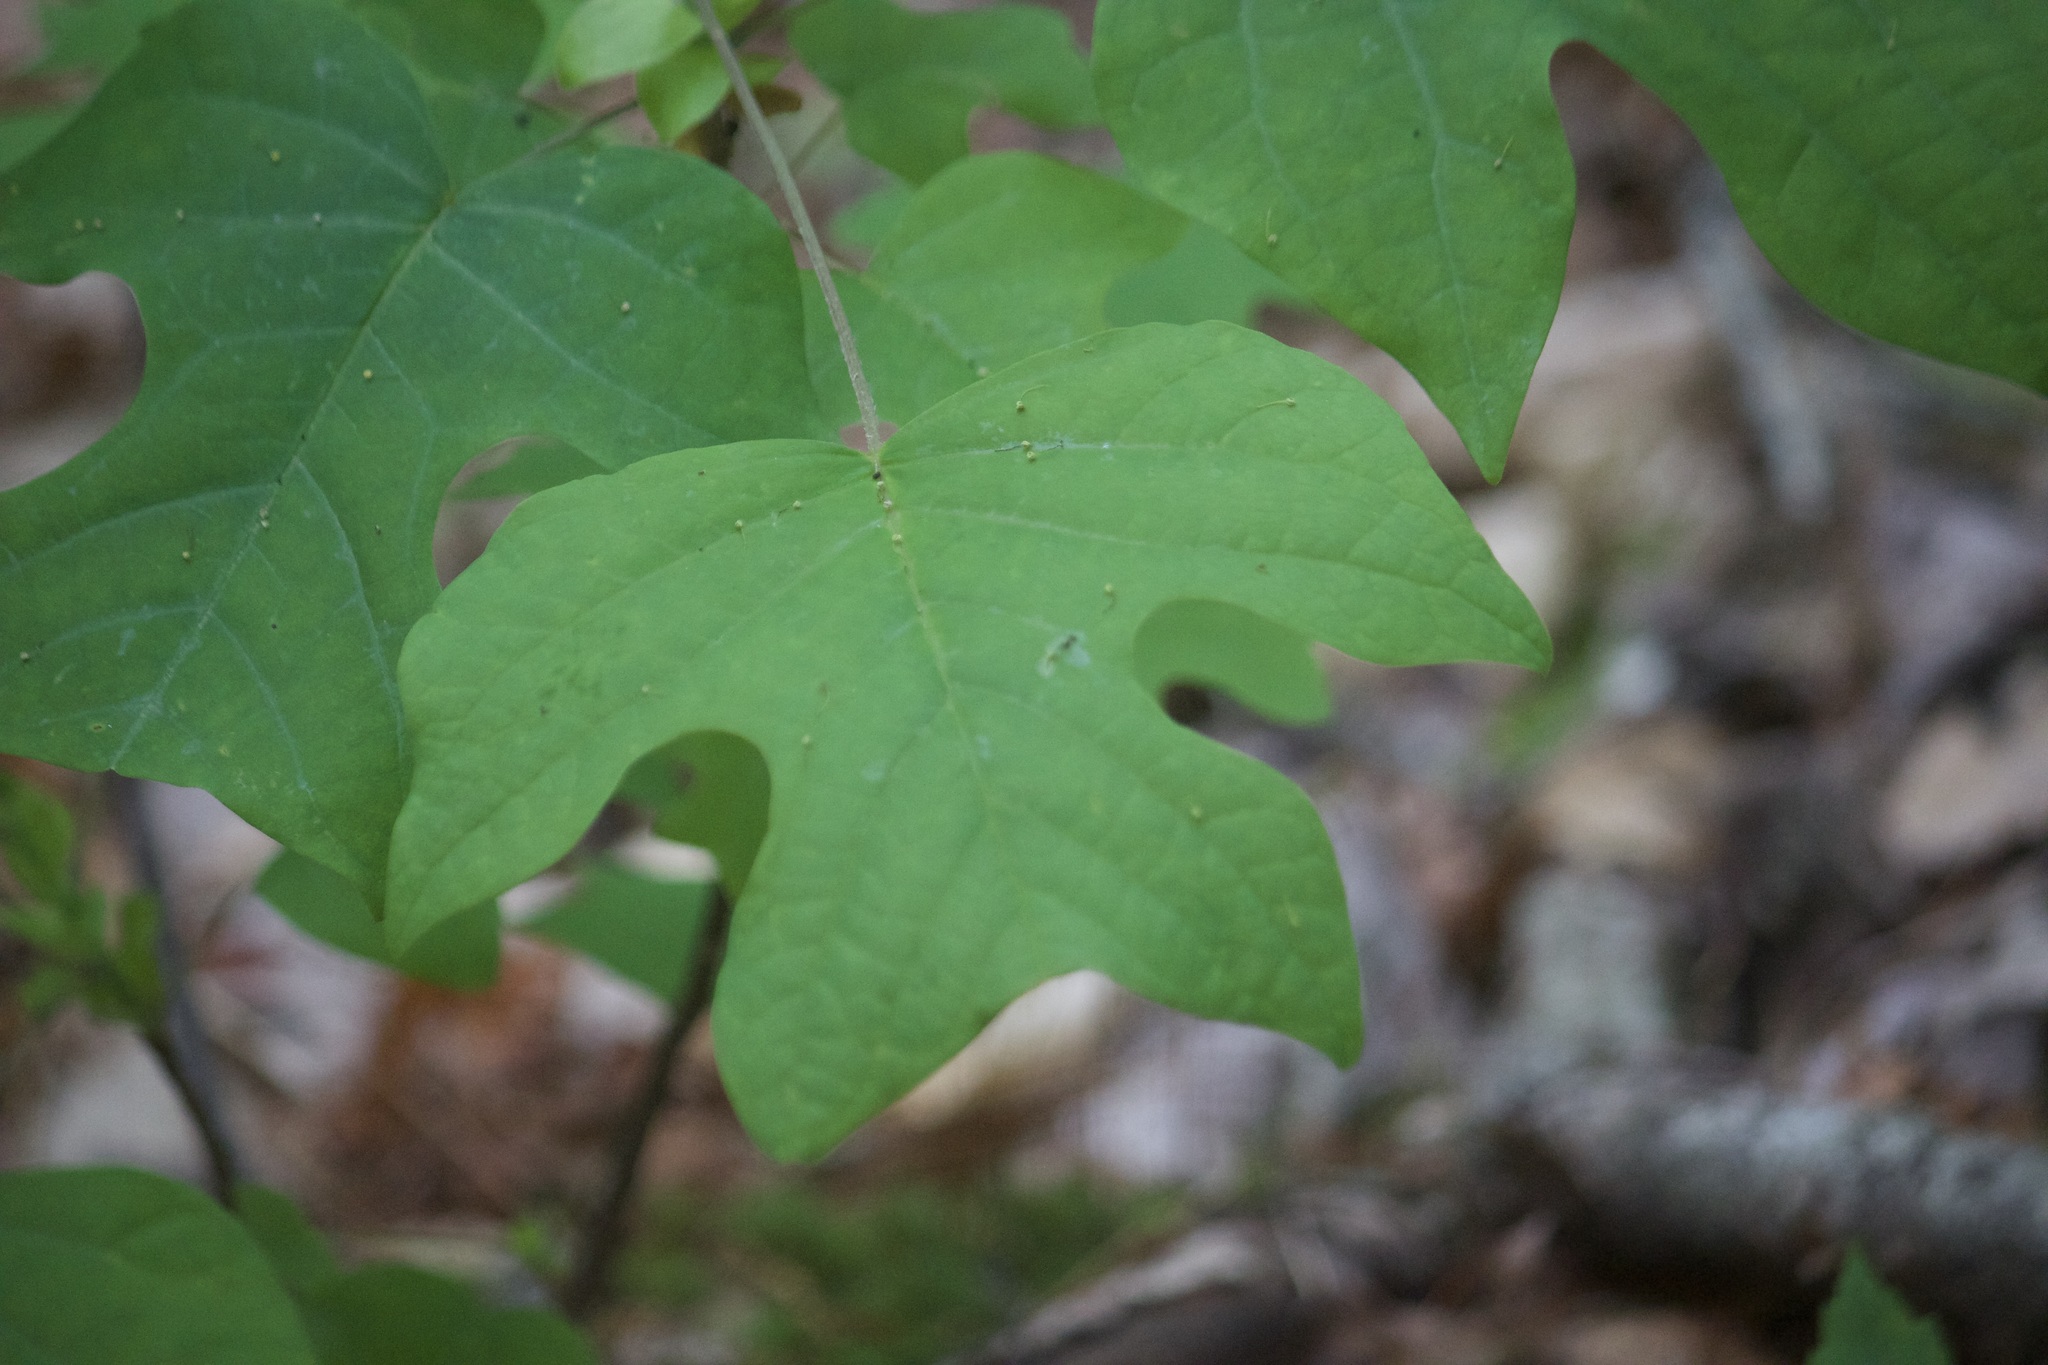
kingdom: Plantae
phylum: Tracheophyta
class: Magnoliopsida
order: Magnoliales
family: Magnoliaceae
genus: Liriodendron
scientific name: Liriodendron tulipifera
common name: Tulip tree
